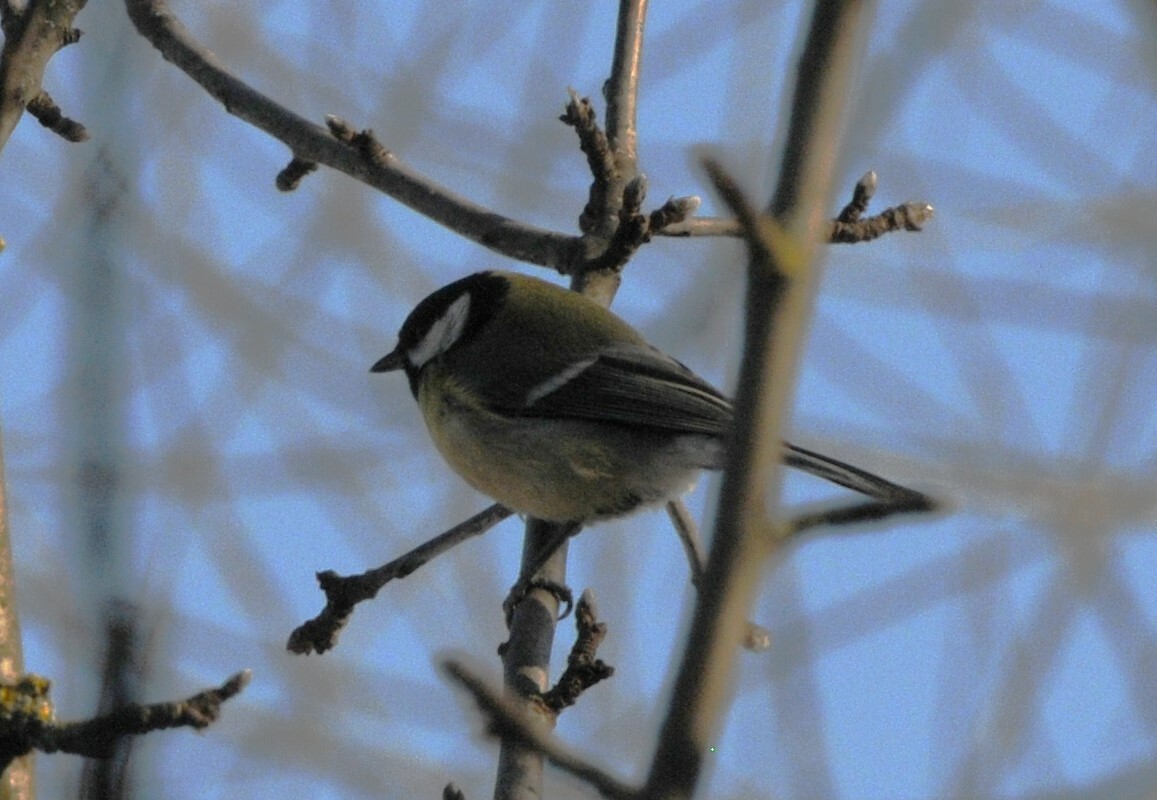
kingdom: Animalia
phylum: Chordata
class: Aves
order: Passeriformes
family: Paridae
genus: Parus
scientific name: Parus major
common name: Great tit
